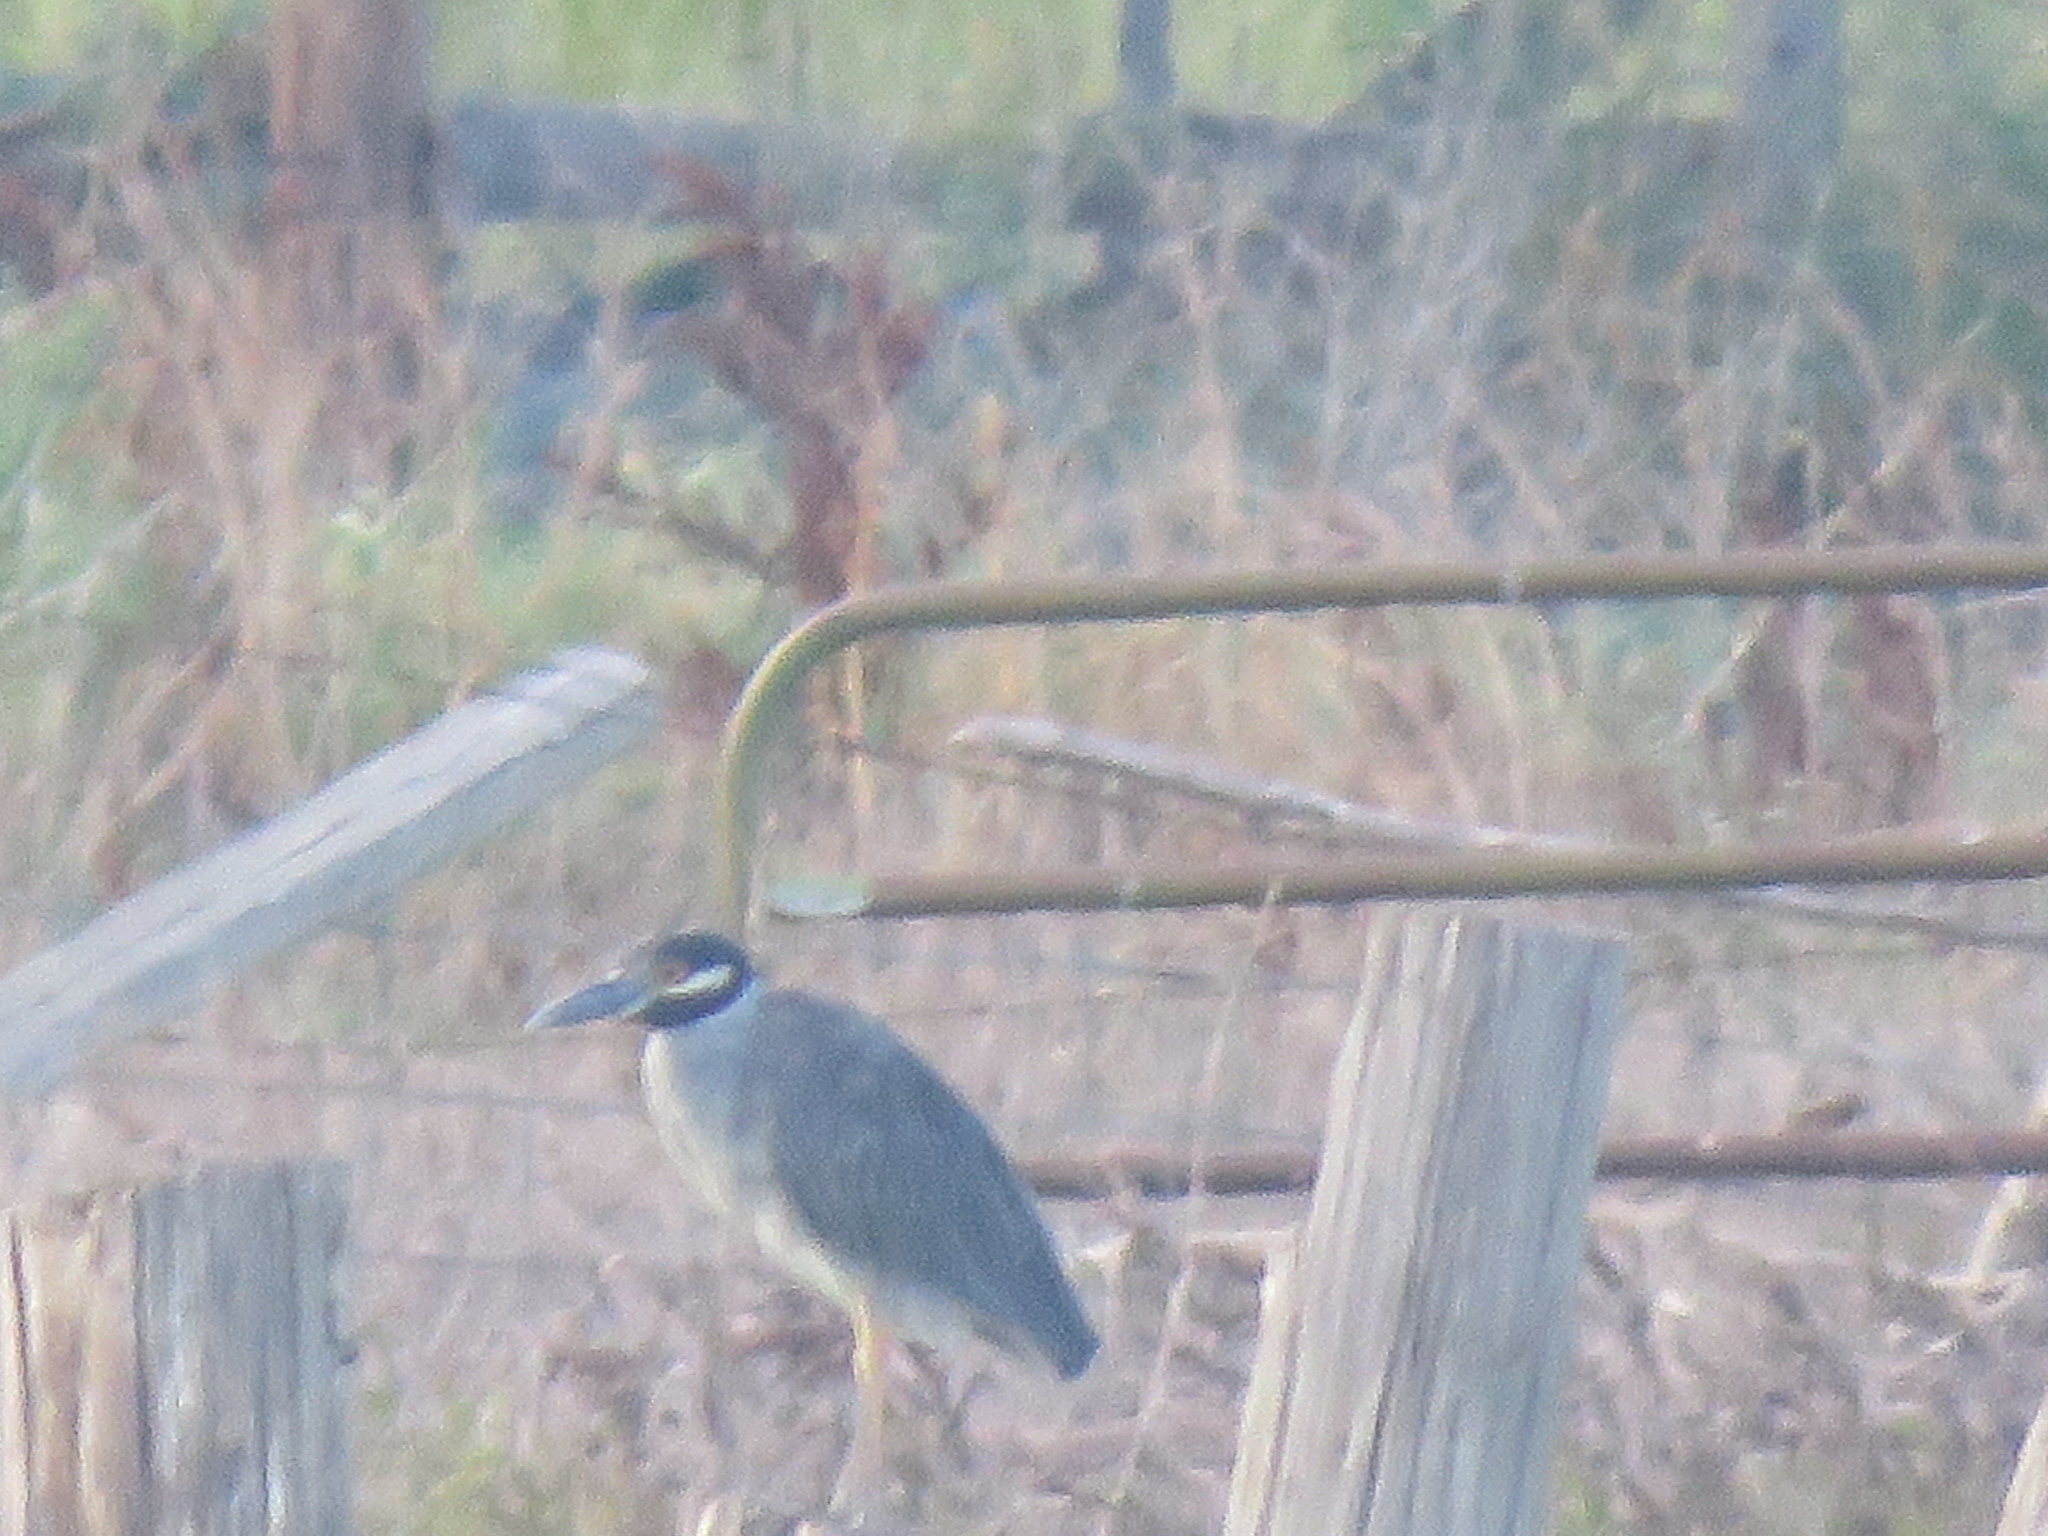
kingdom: Animalia
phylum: Chordata
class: Aves
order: Pelecaniformes
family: Ardeidae
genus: Nyctanassa
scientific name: Nyctanassa violacea
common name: Yellow-crowned night heron
